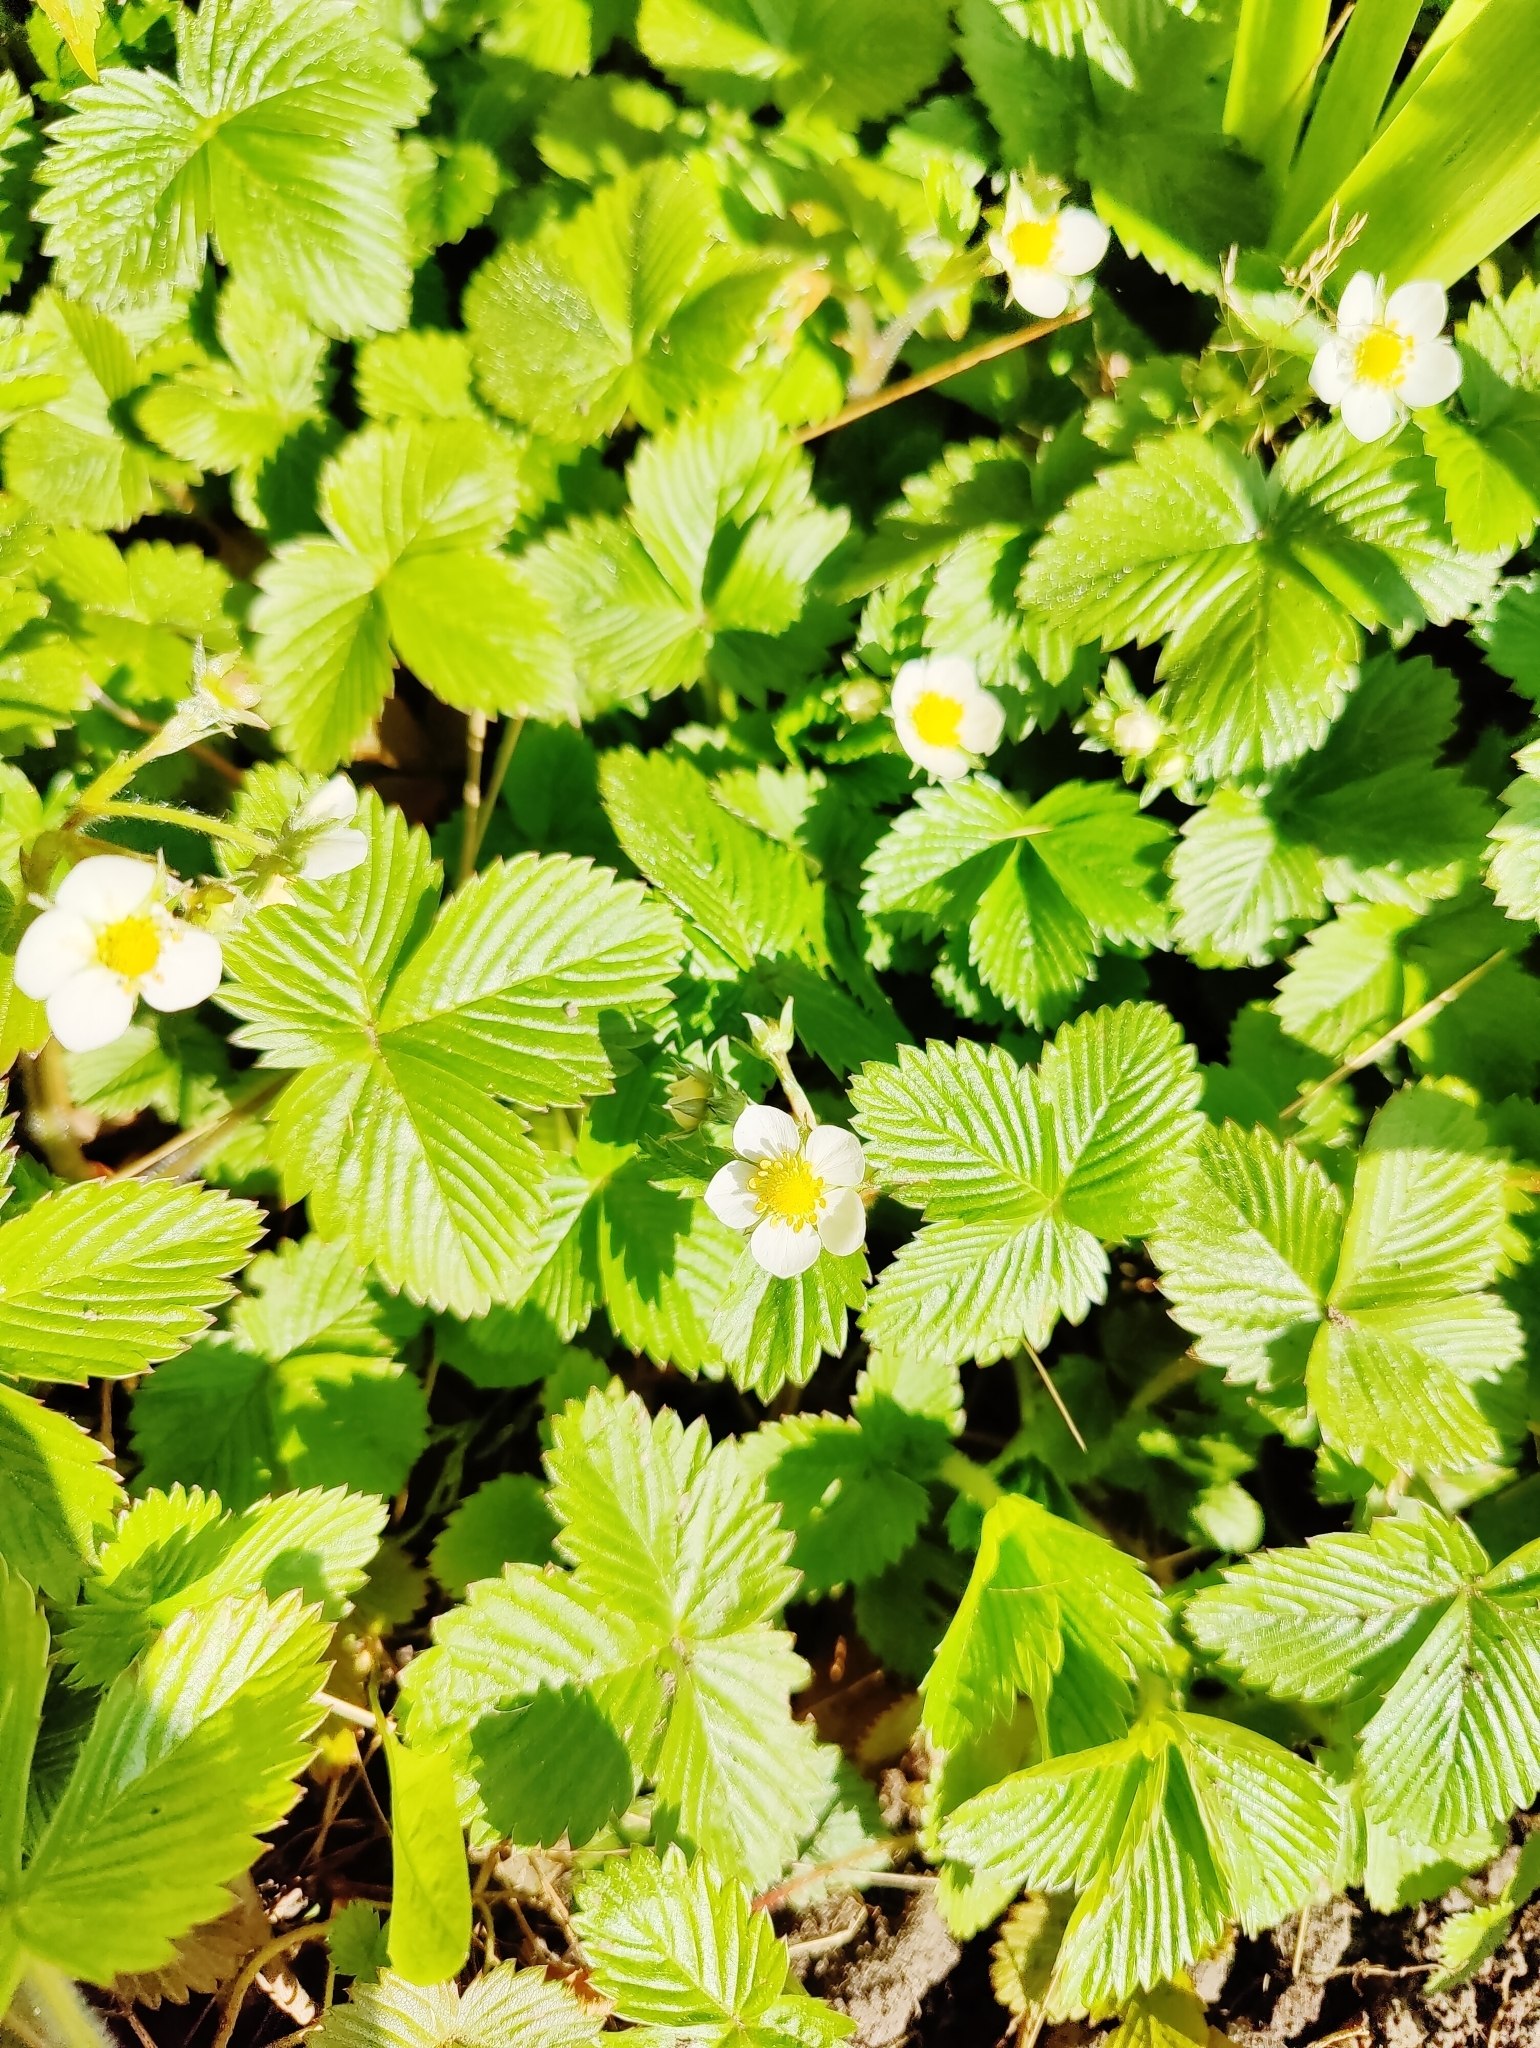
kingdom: Plantae
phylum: Tracheophyta
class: Magnoliopsida
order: Rosales
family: Rosaceae
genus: Fragaria
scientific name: Fragaria vesca
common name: Wild strawberry
